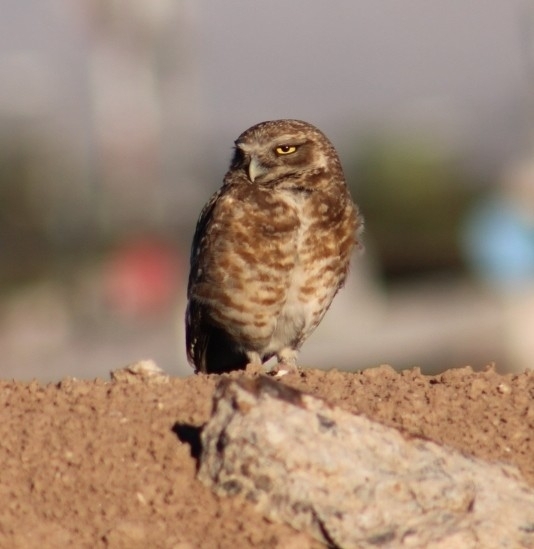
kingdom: Animalia
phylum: Chordata
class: Aves
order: Strigiformes
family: Strigidae
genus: Athene
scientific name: Athene cunicularia
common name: Burrowing owl
